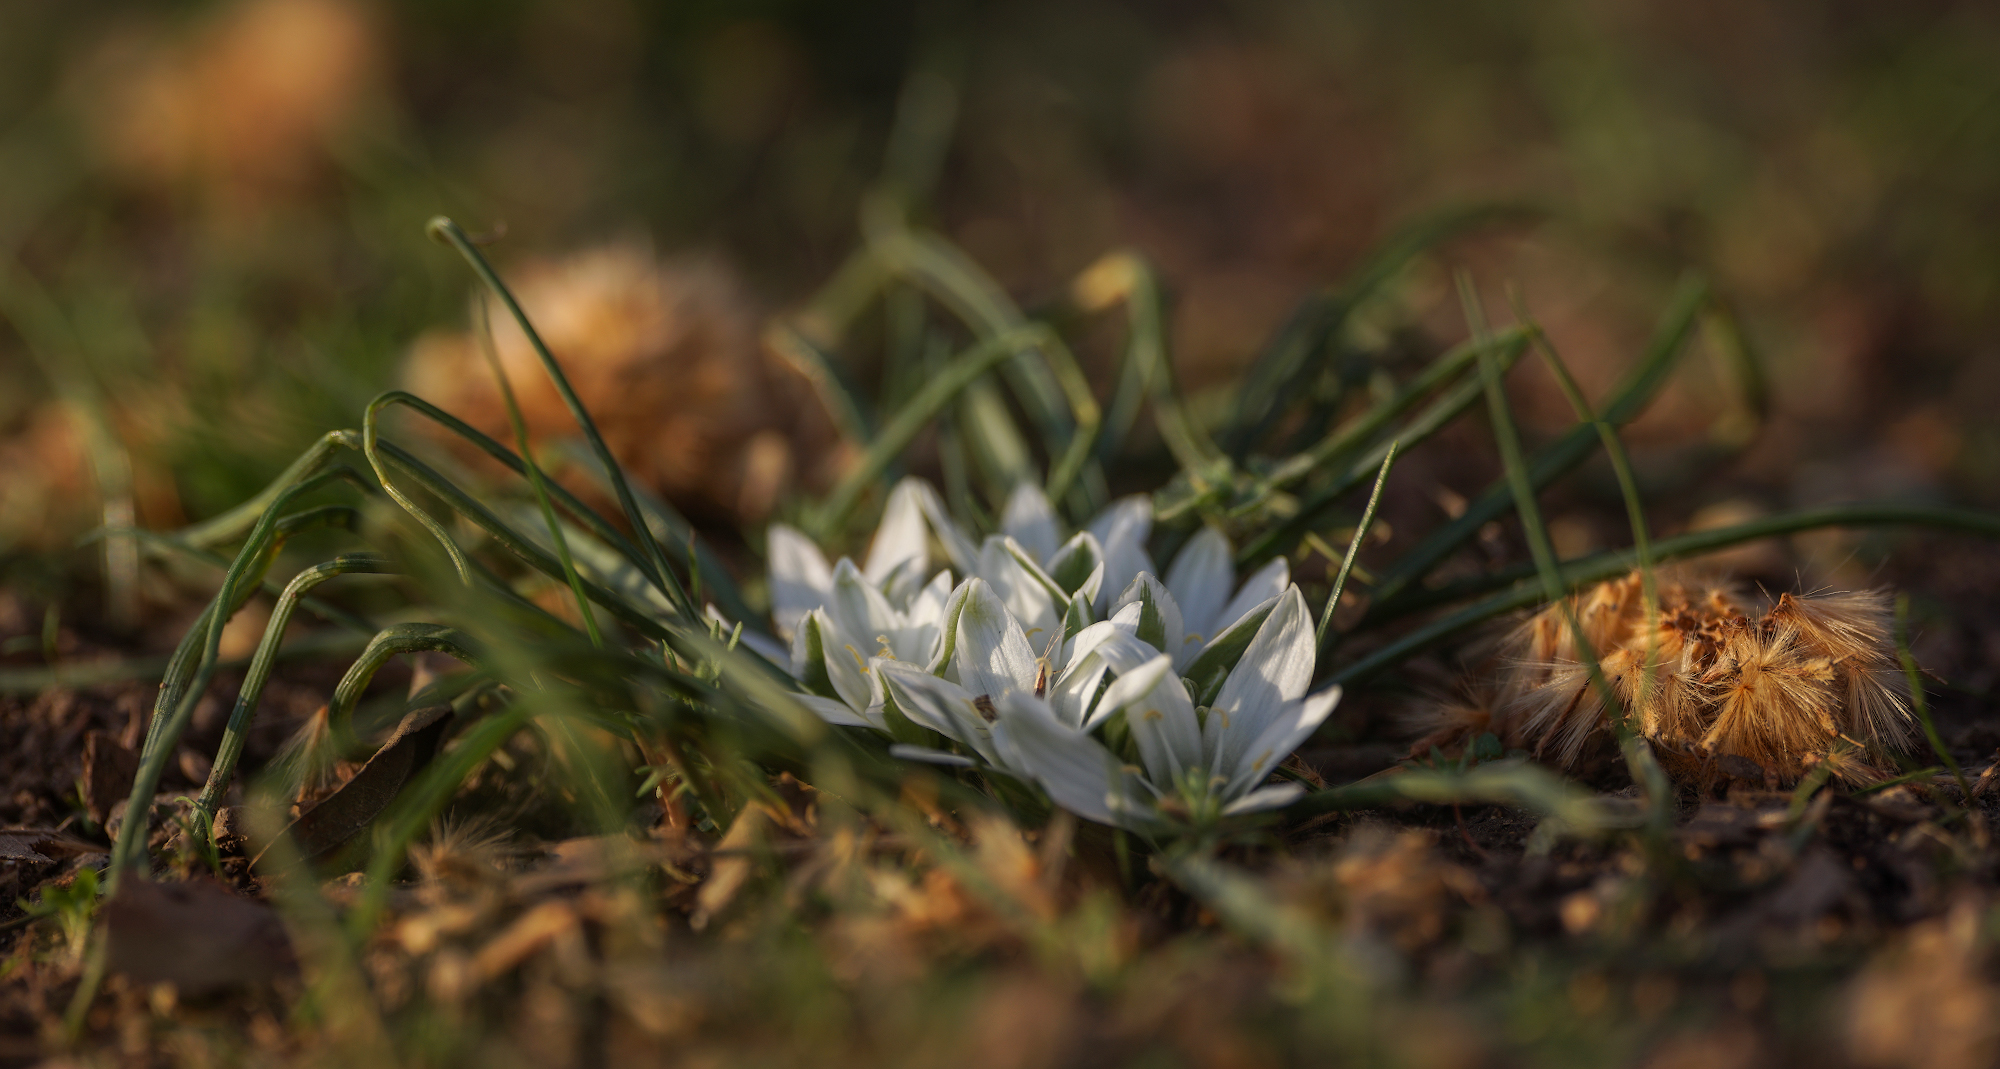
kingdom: Plantae
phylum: Tracheophyta
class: Liliopsida
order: Asparagales
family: Asparagaceae
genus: Ornithogalum
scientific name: Ornithogalum refractum
